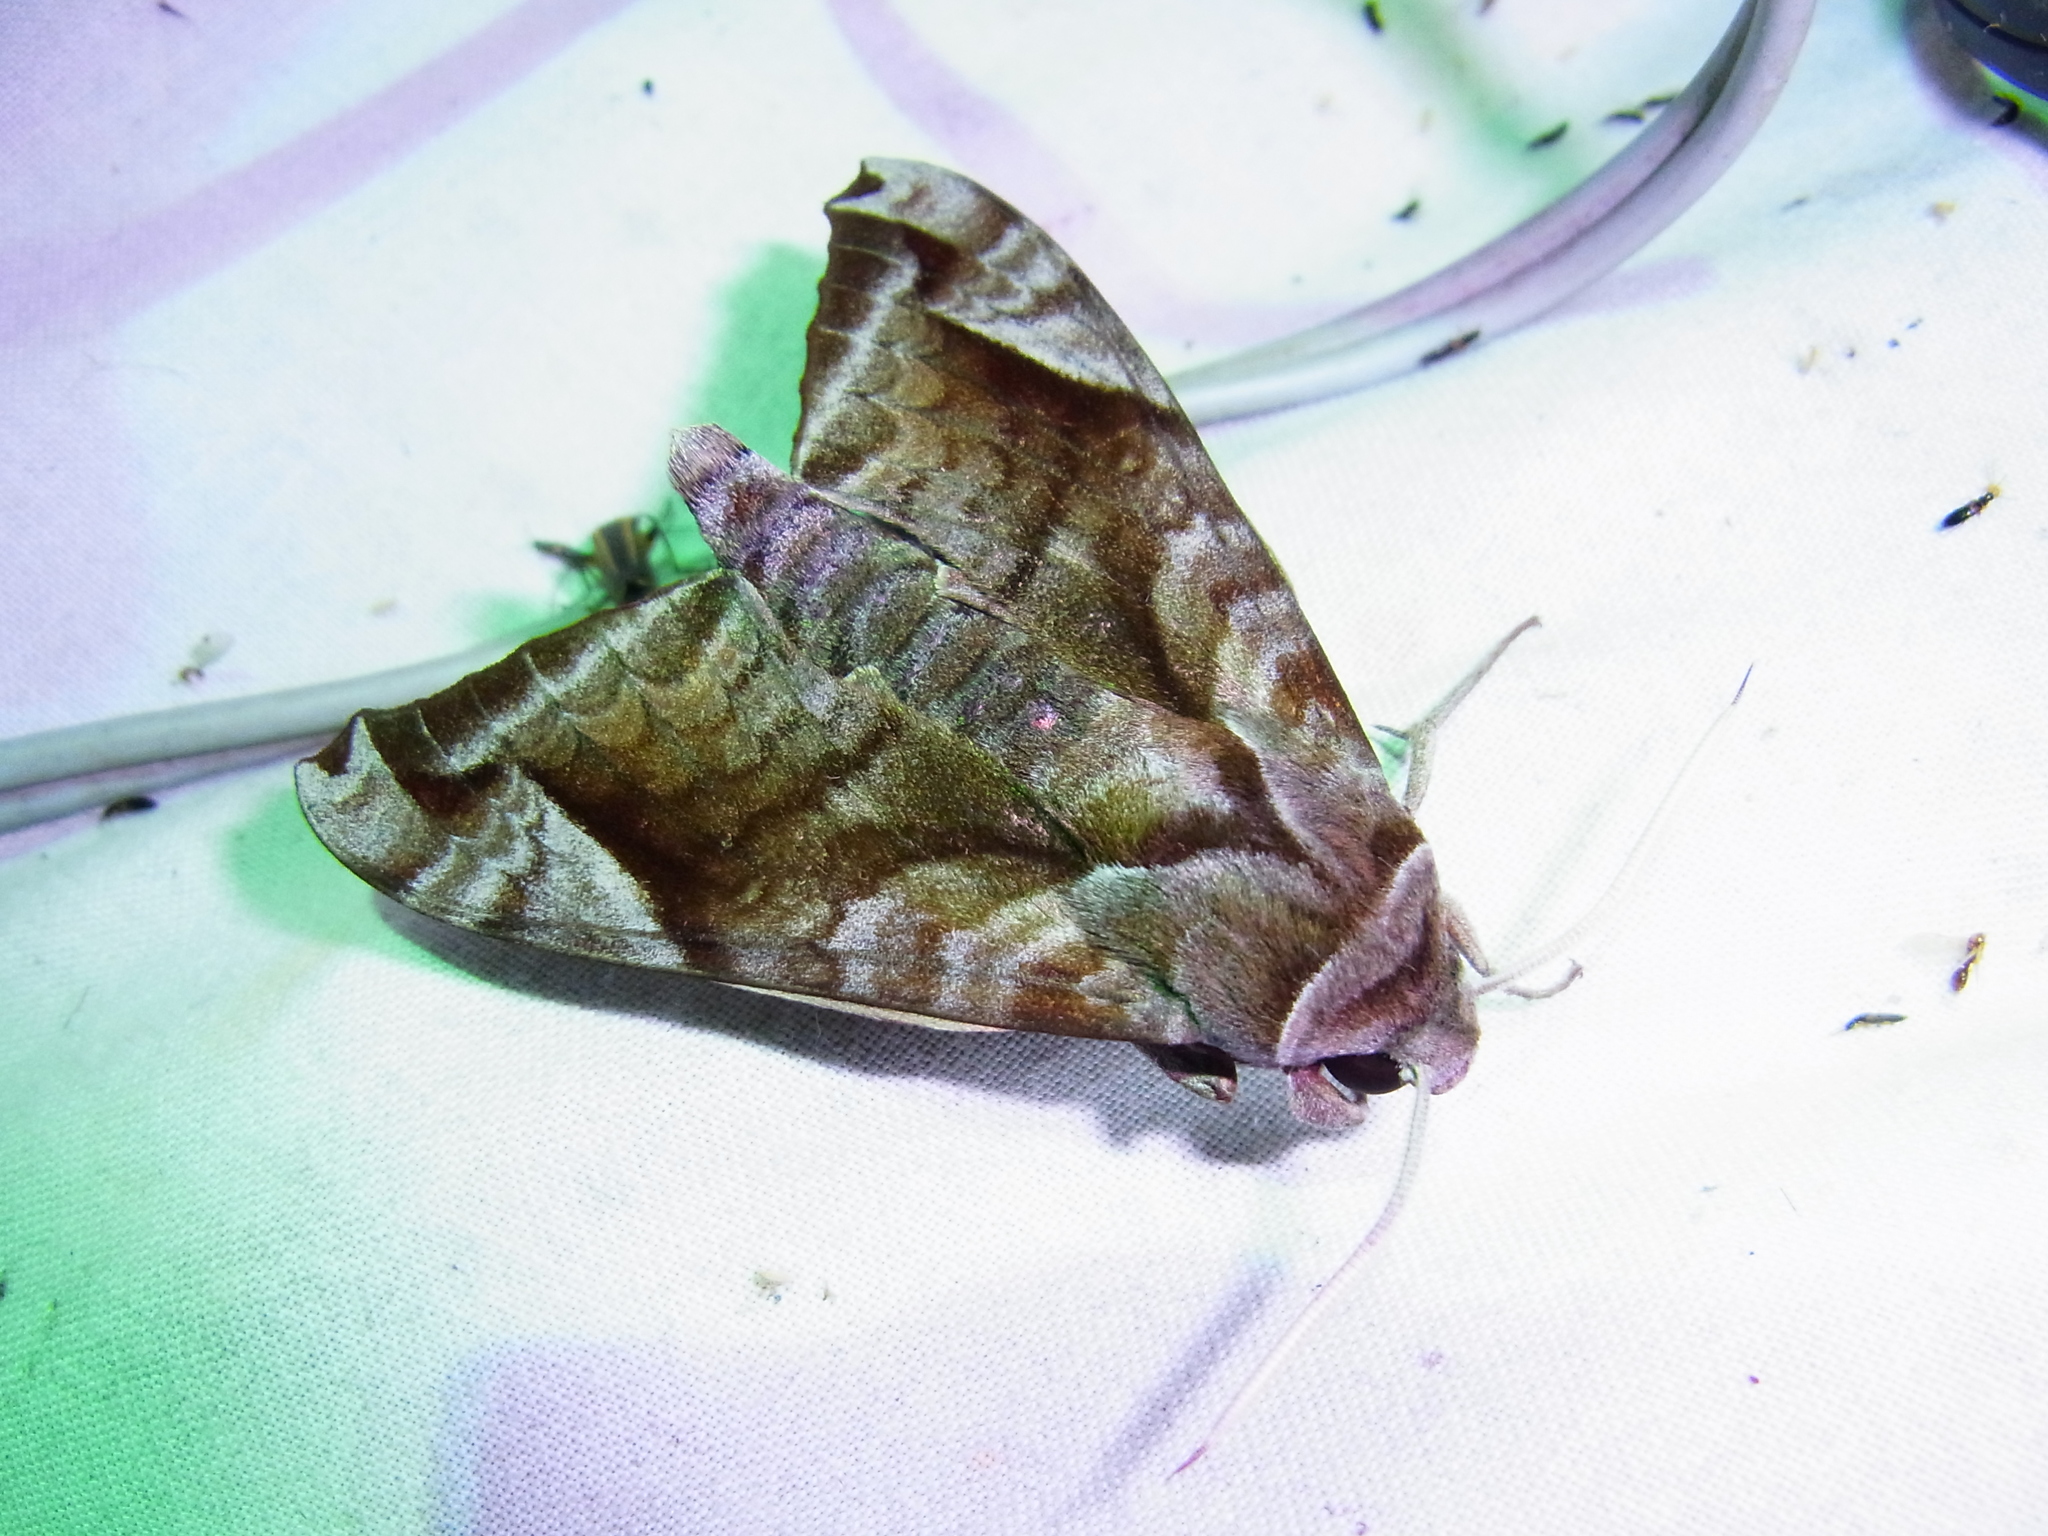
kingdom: Animalia
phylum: Arthropoda
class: Insecta
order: Lepidoptera
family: Sphingidae
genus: Acosmeryx
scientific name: Acosmeryx naga
